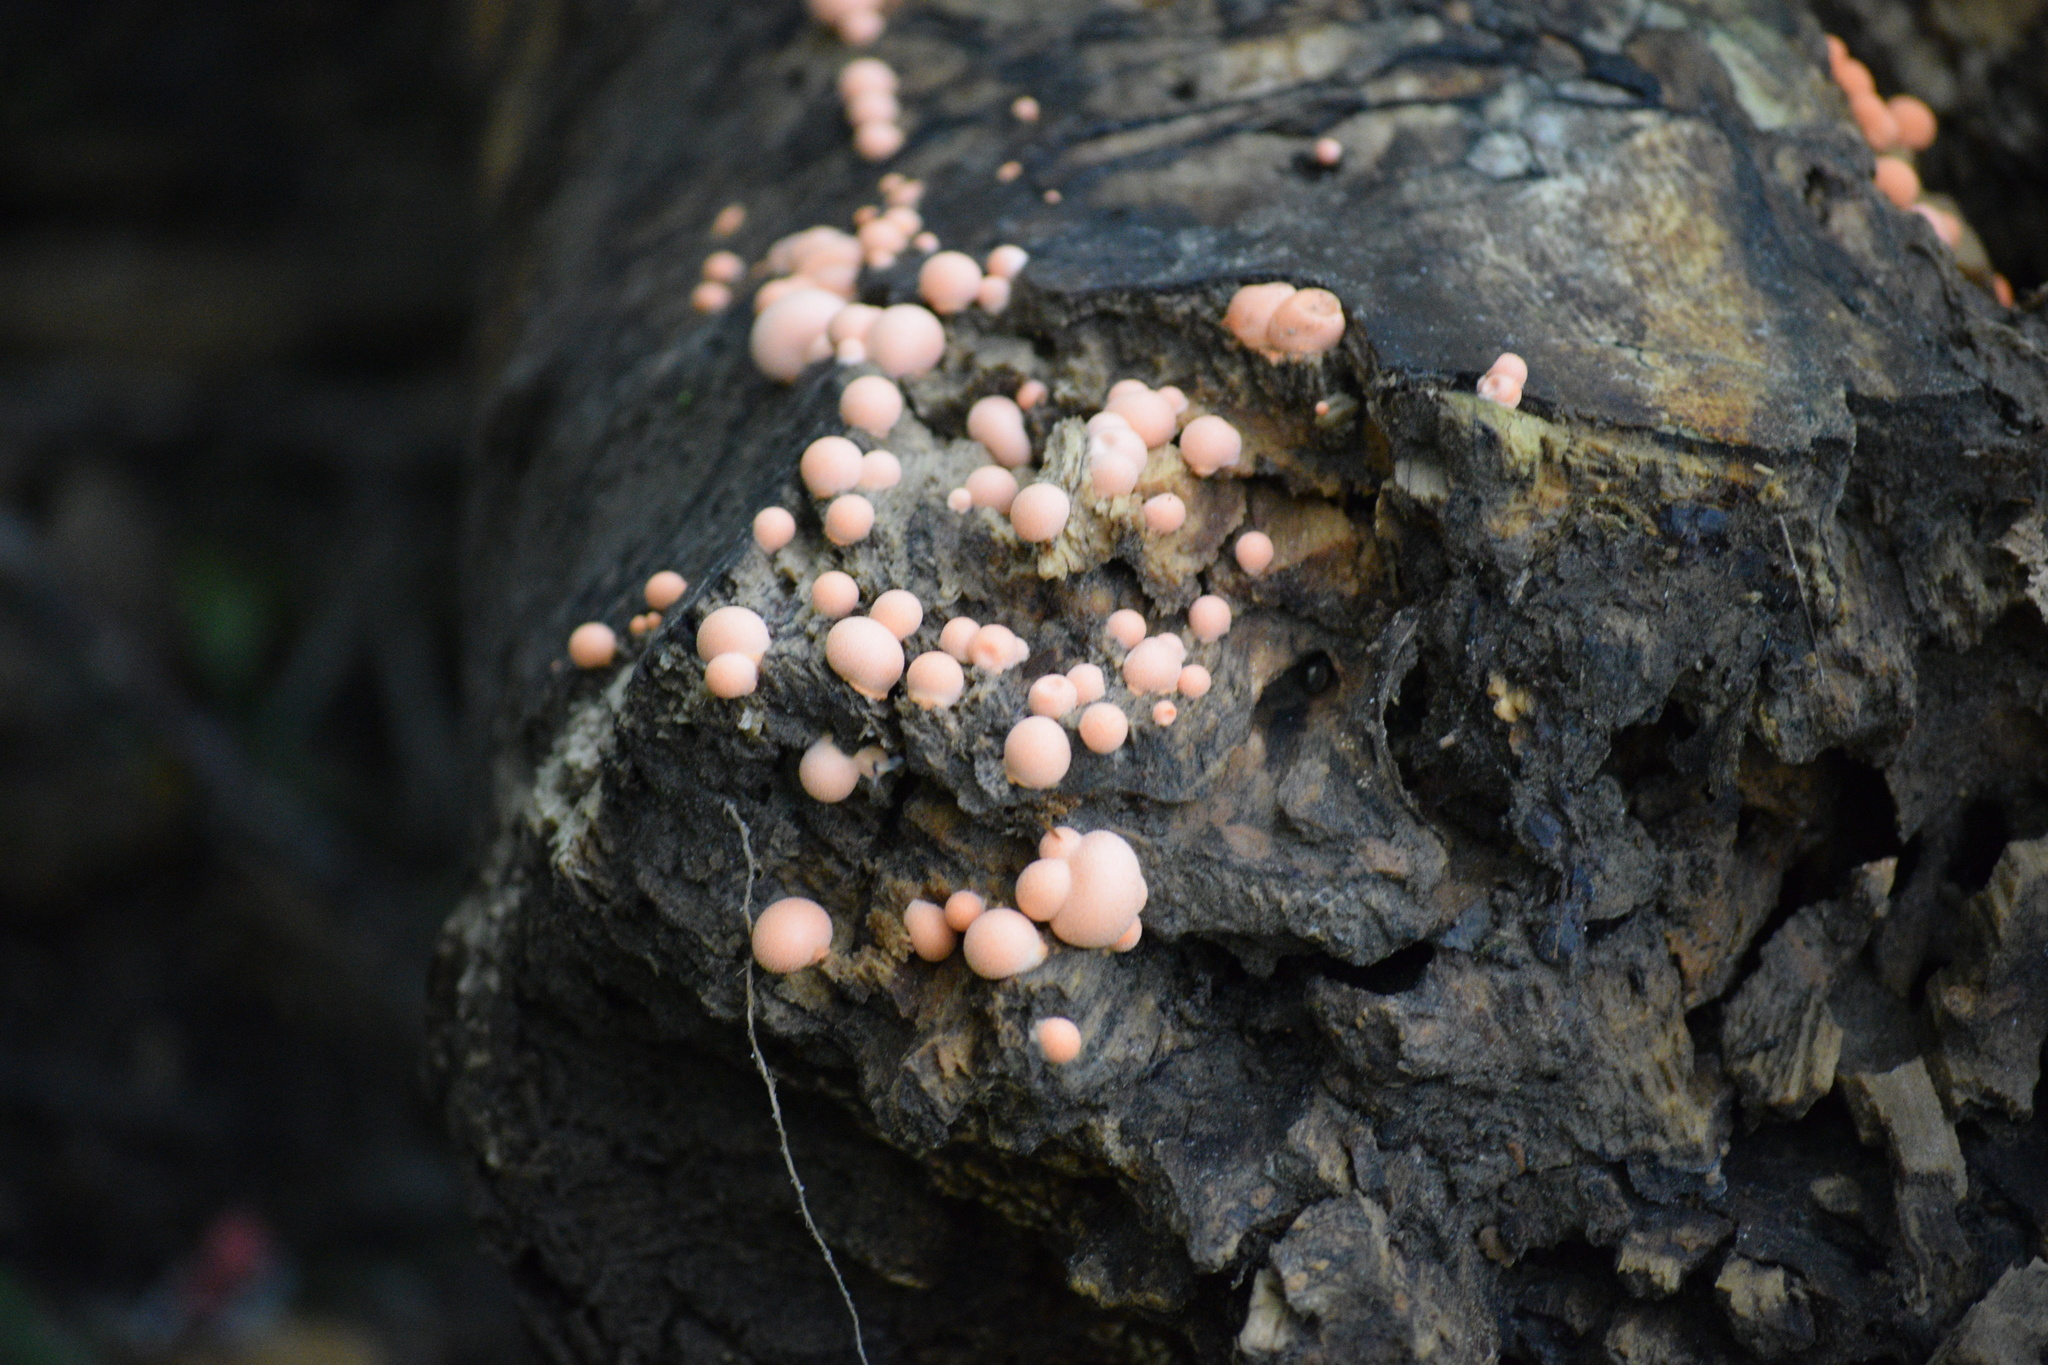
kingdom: Protozoa
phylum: Mycetozoa
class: Myxomycetes
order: Cribrariales
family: Tubiferaceae
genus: Lycogala
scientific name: Lycogala epidendrum
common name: Wolf's milk
